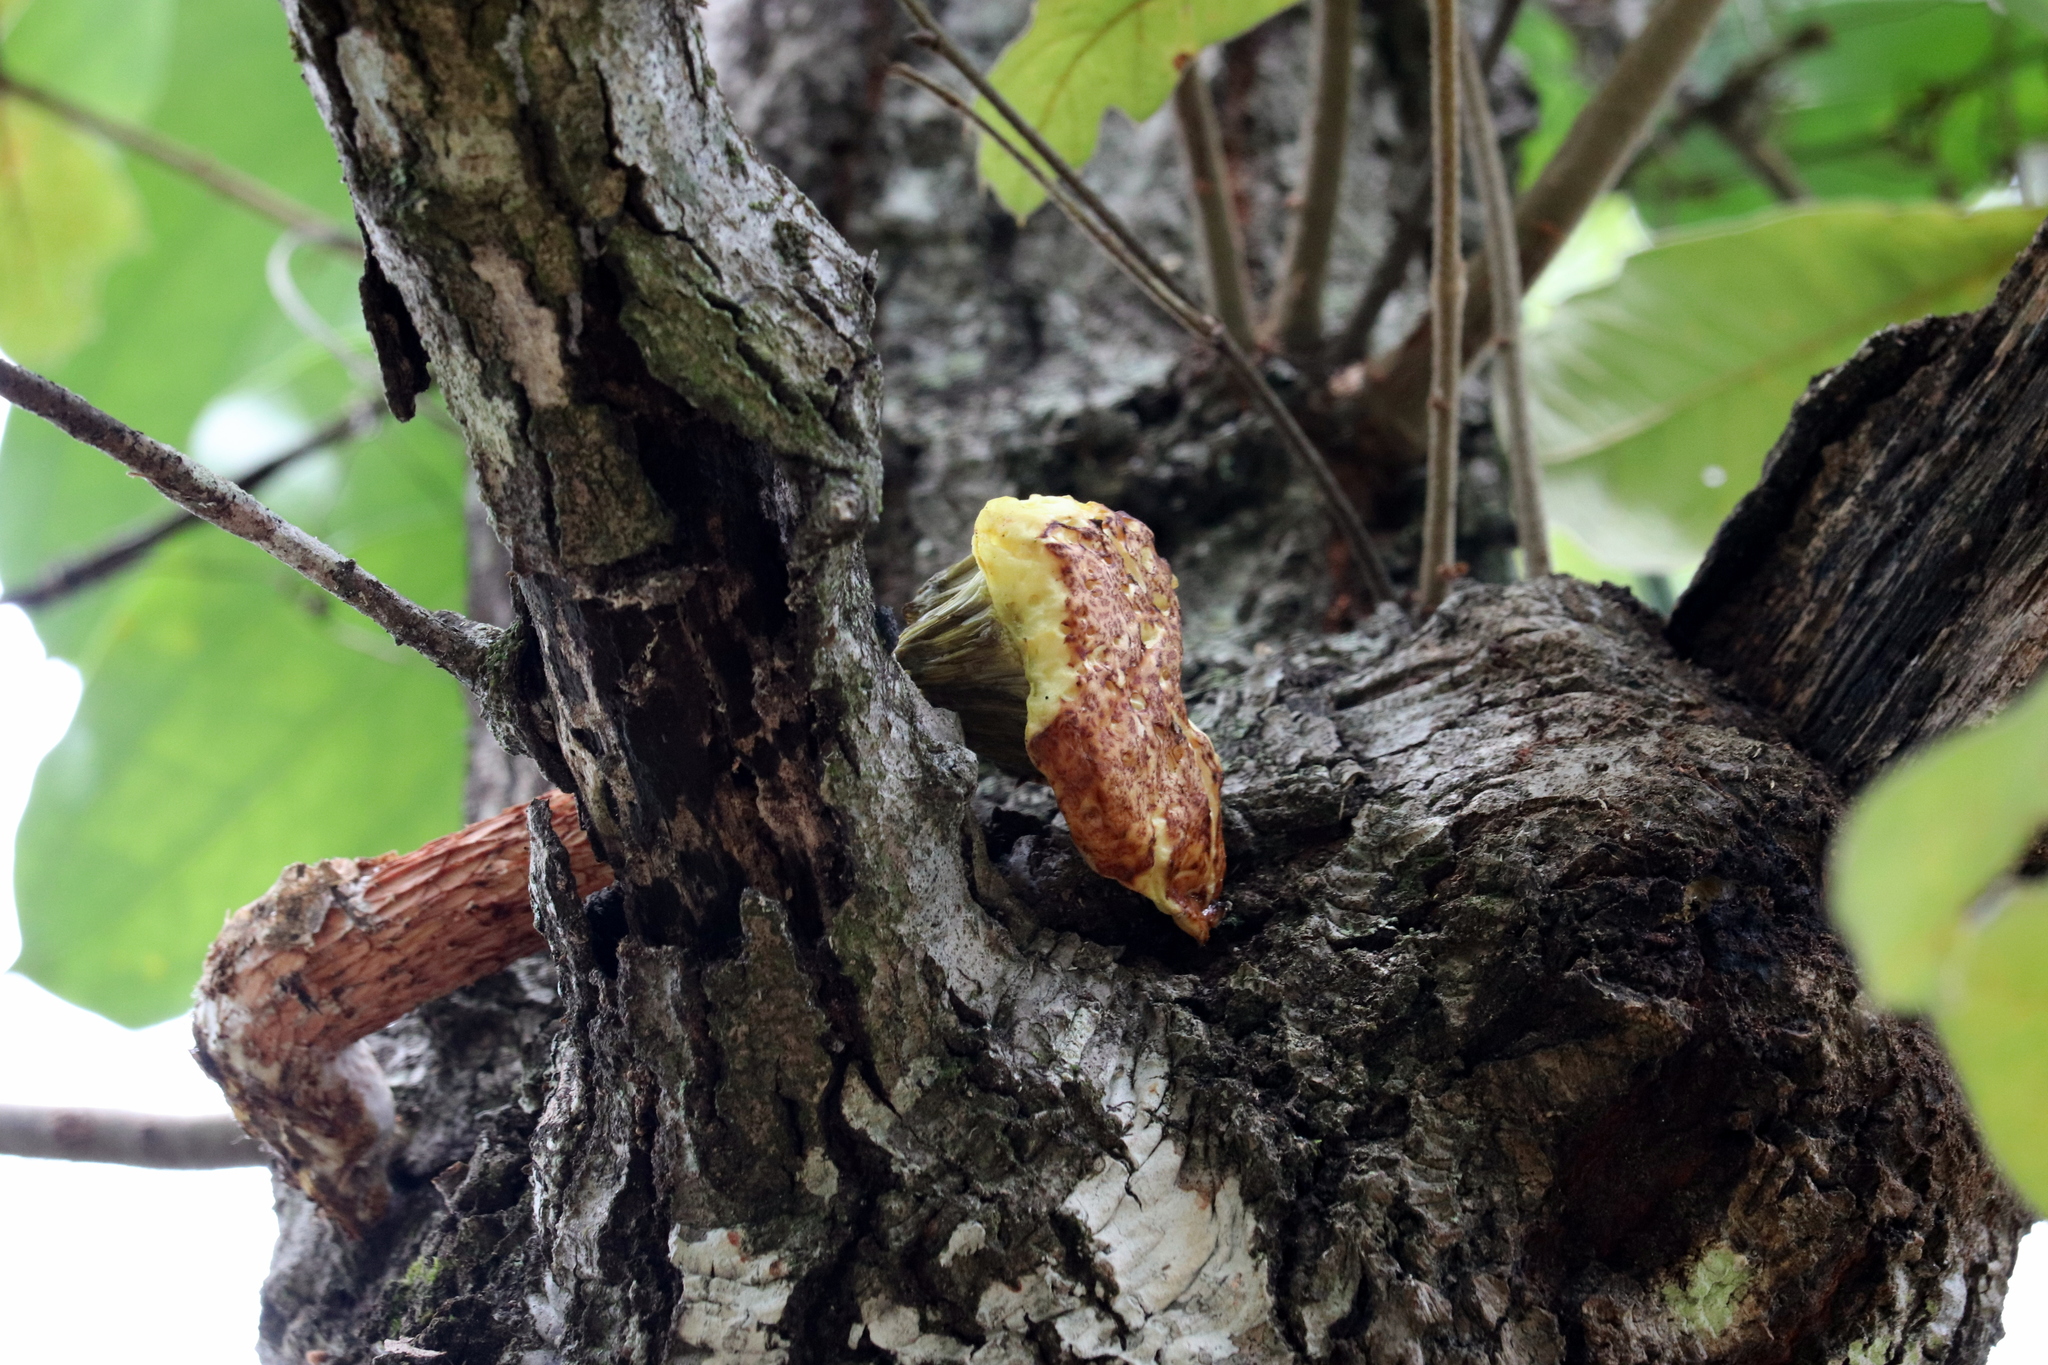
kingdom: Fungi
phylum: Basidiomycota
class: Agaricomycetes
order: Boletales
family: Boletaceae
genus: Aureoboletus
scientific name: Aureoboletus russellii
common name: Russell's bolete
